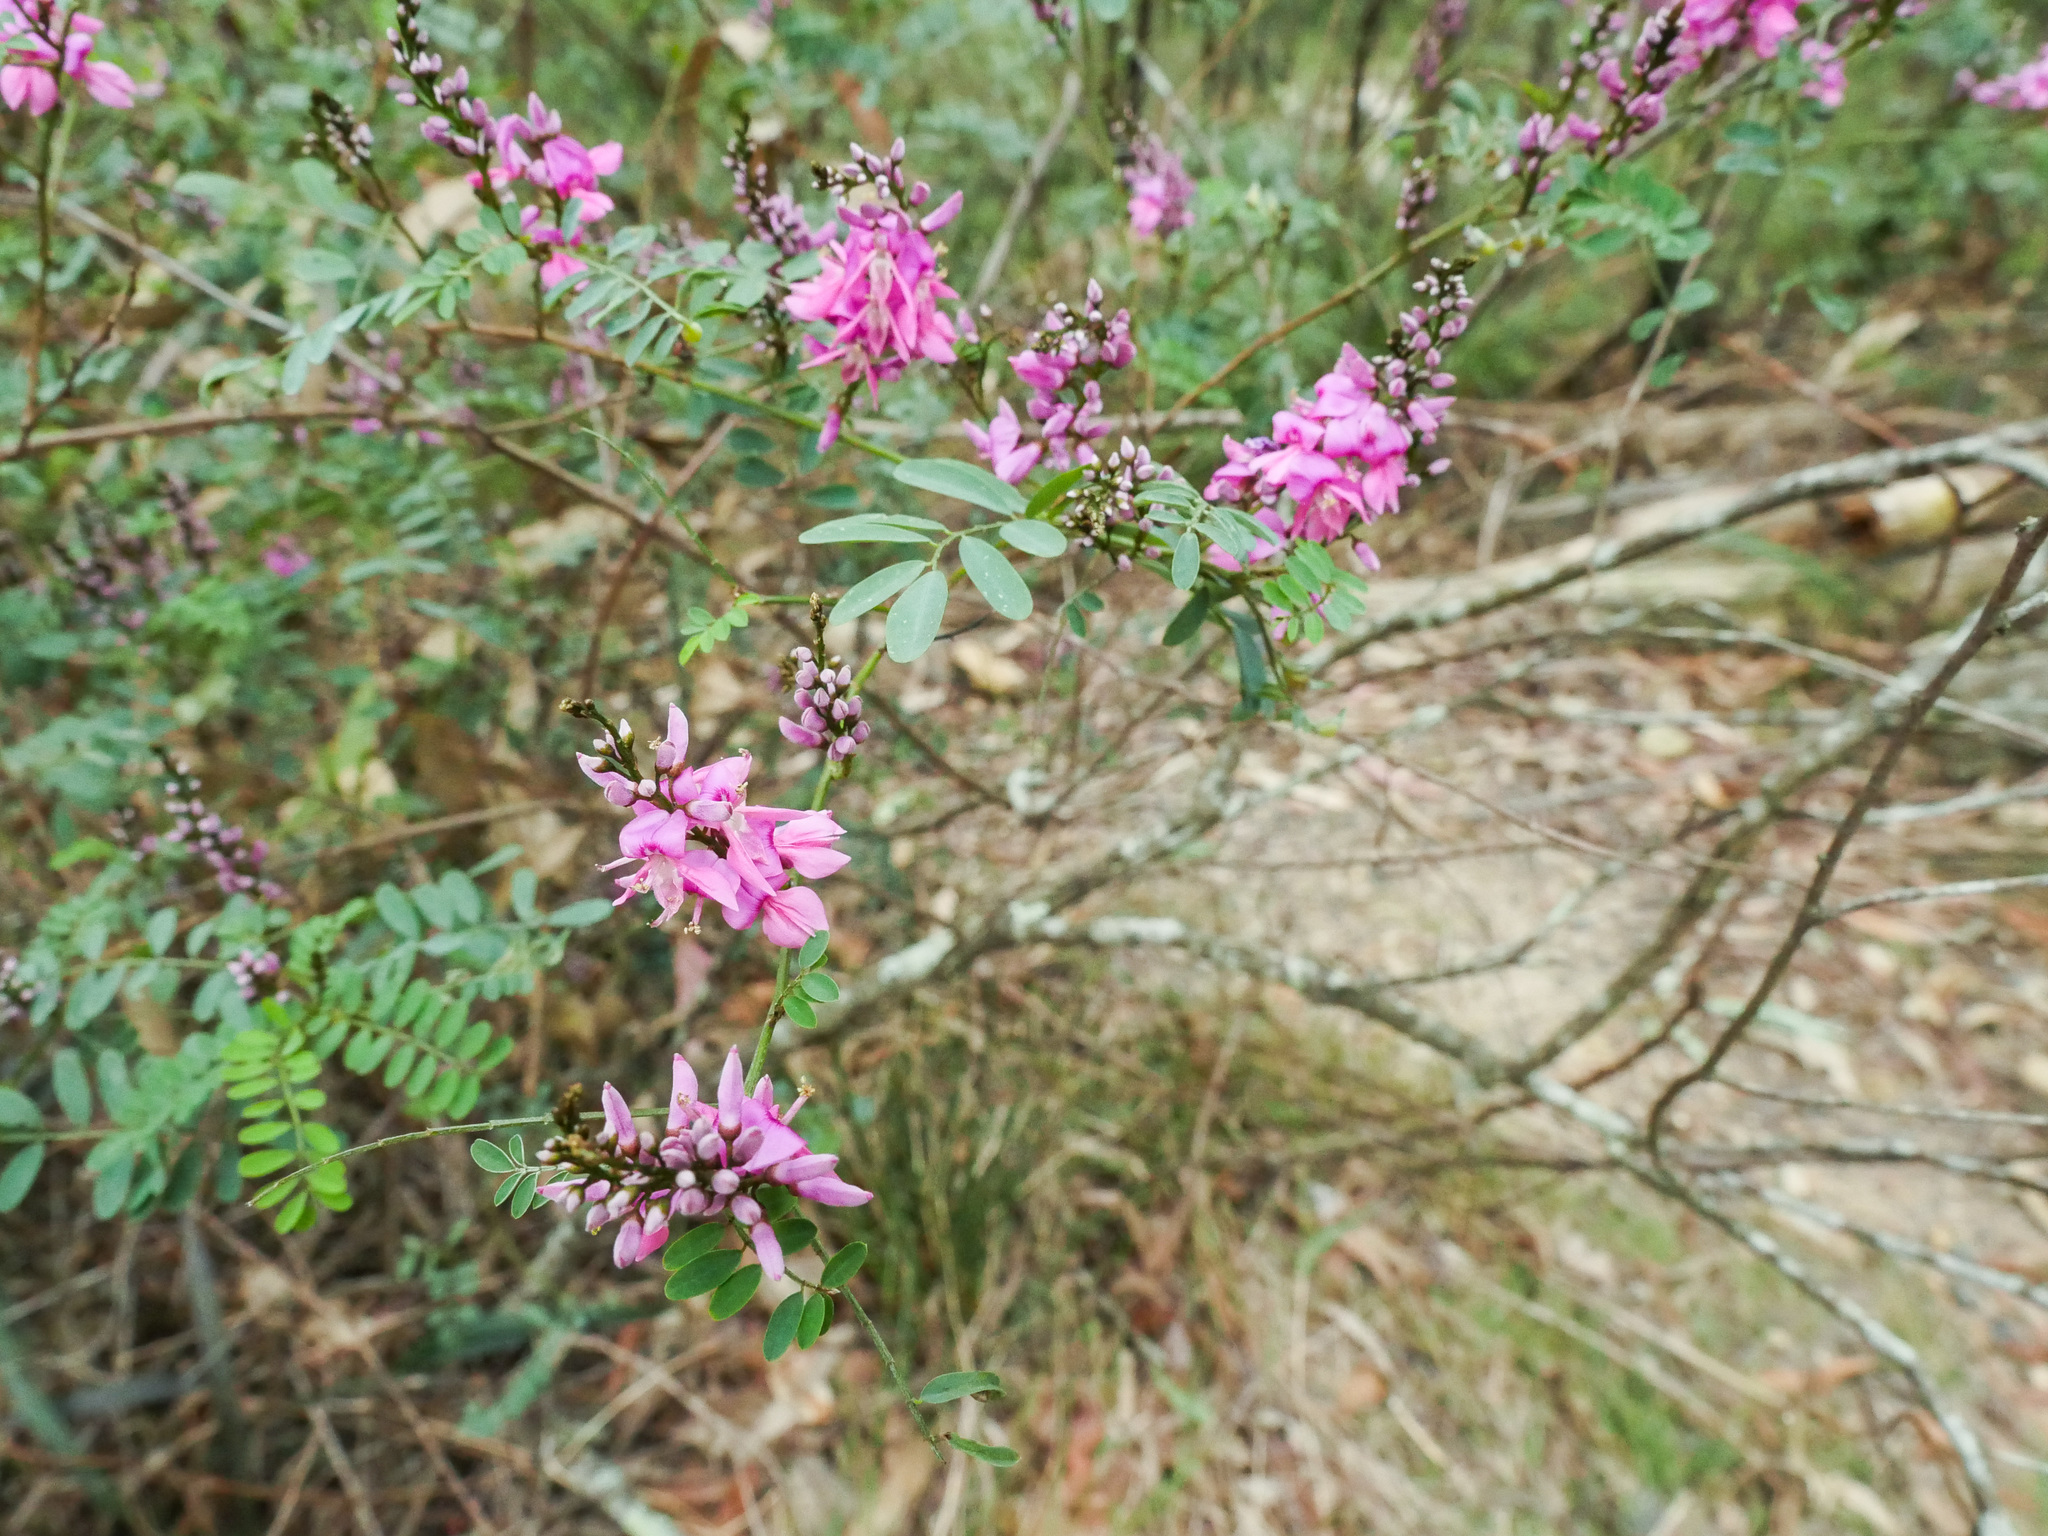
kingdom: Plantae
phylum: Tracheophyta
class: Magnoliopsida
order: Fabales
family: Fabaceae
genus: Indigofera
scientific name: Indigofera australis
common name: Australian indigo
